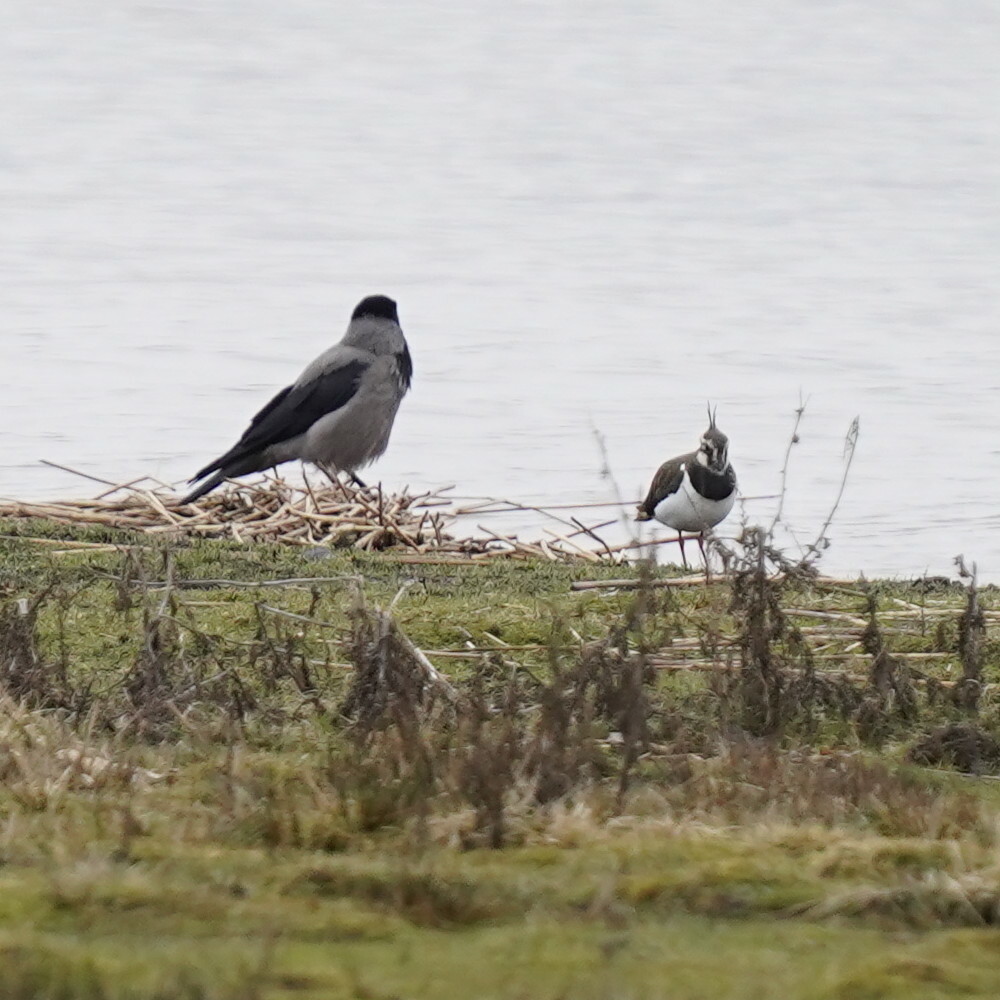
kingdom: Animalia
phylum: Chordata
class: Aves
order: Charadriiformes
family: Charadriidae
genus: Vanellus
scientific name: Vanellus vanellus
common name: Northern lapwing
